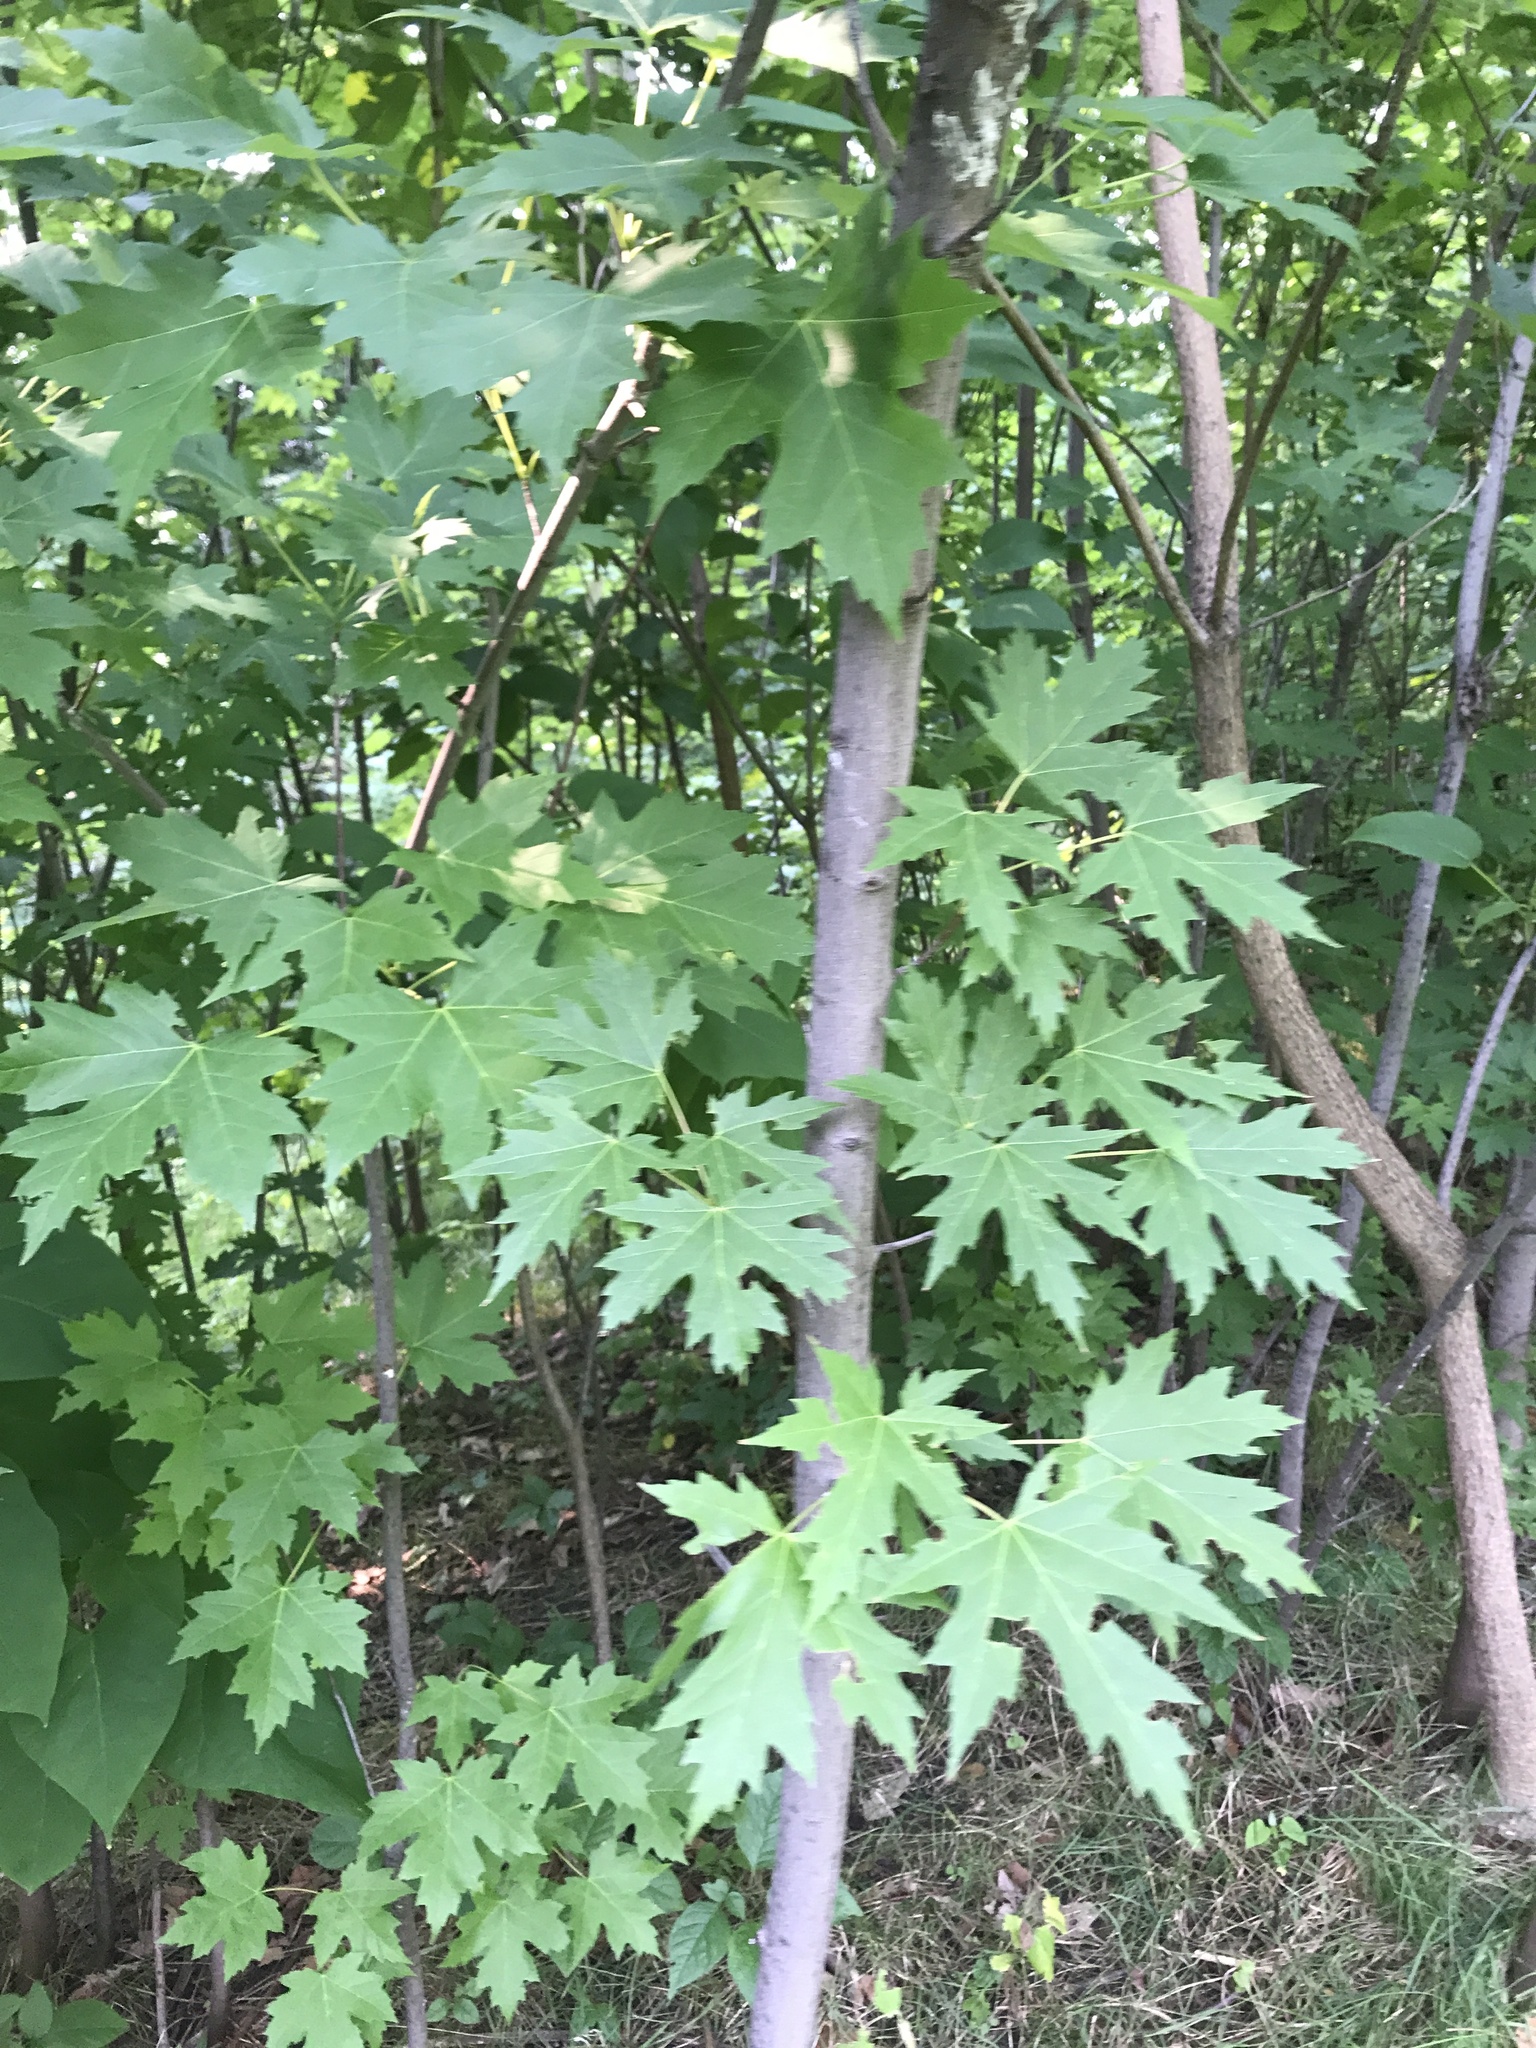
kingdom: Plantae
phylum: Tracheophyta
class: Magnoliopsida
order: Sapindales
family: Sapindaceae
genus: Acer
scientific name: Acer saccharinum
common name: Silver maple
